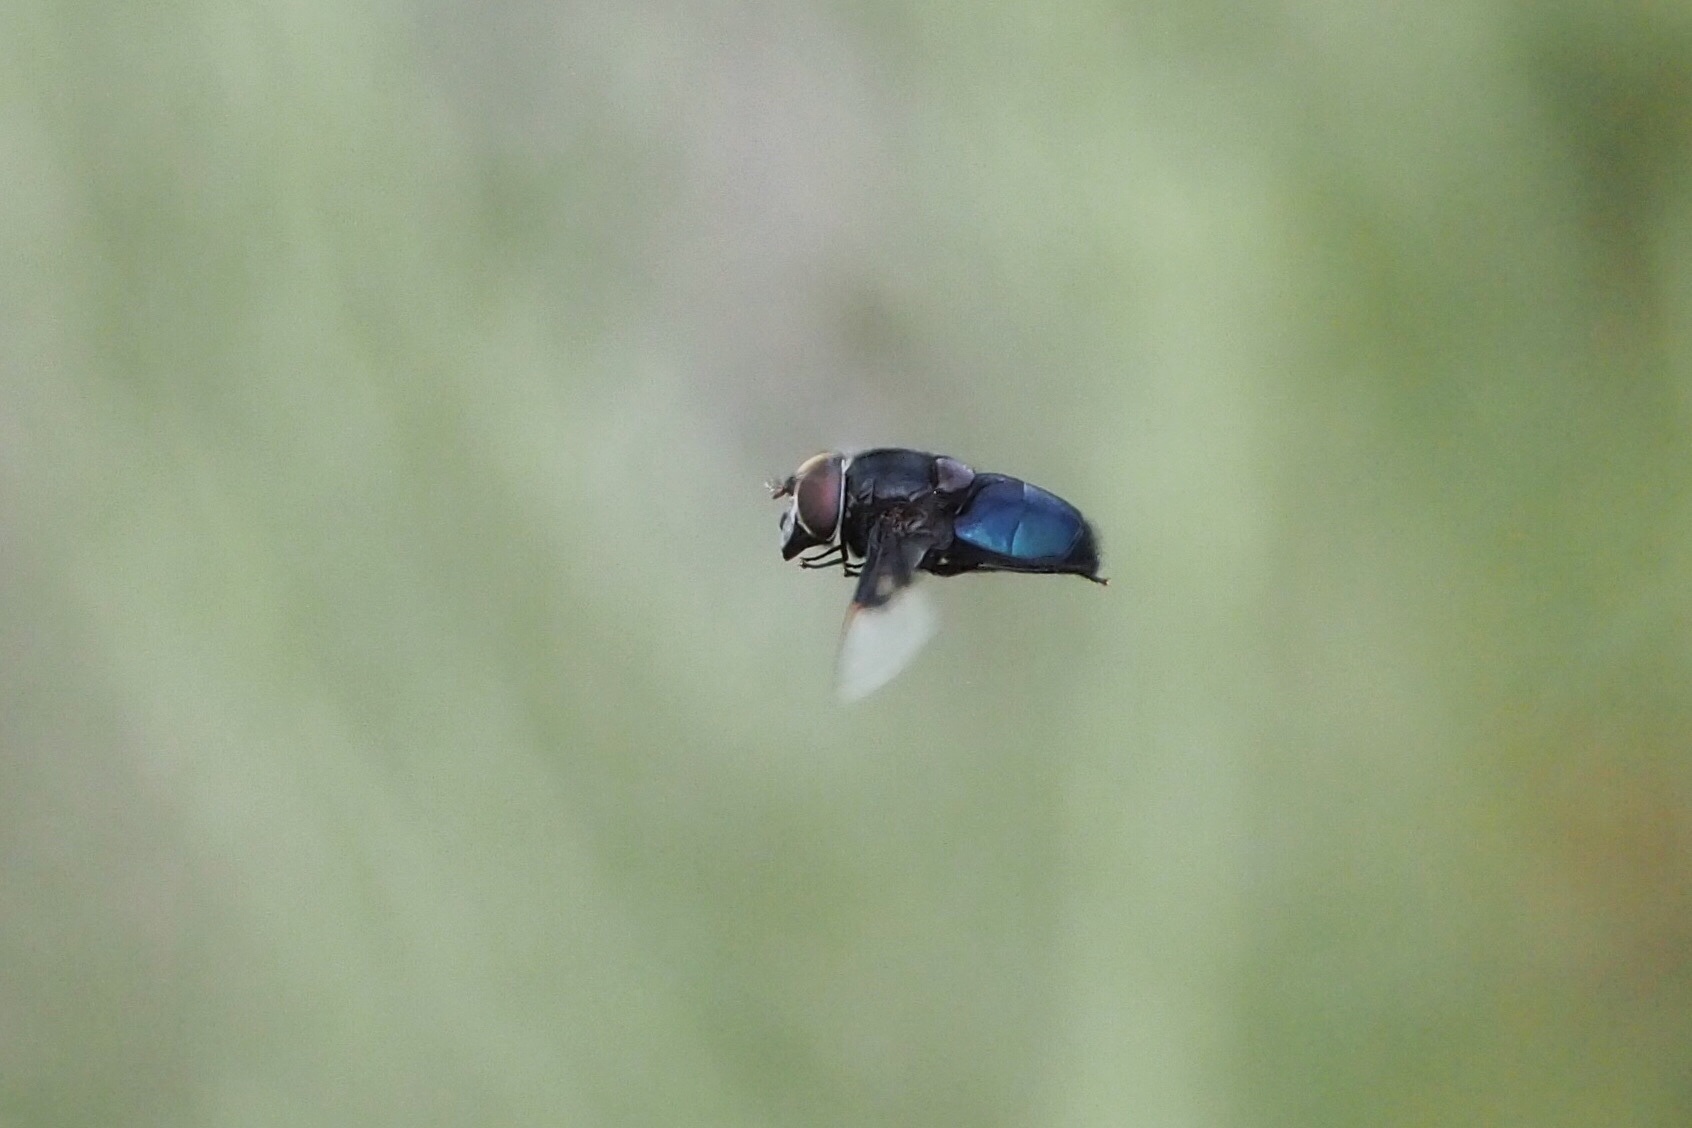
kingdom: Animalia
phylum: Arthropoda
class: Insecta
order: Diptera
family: Syrphidae
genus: Copestylum
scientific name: Copestylum
